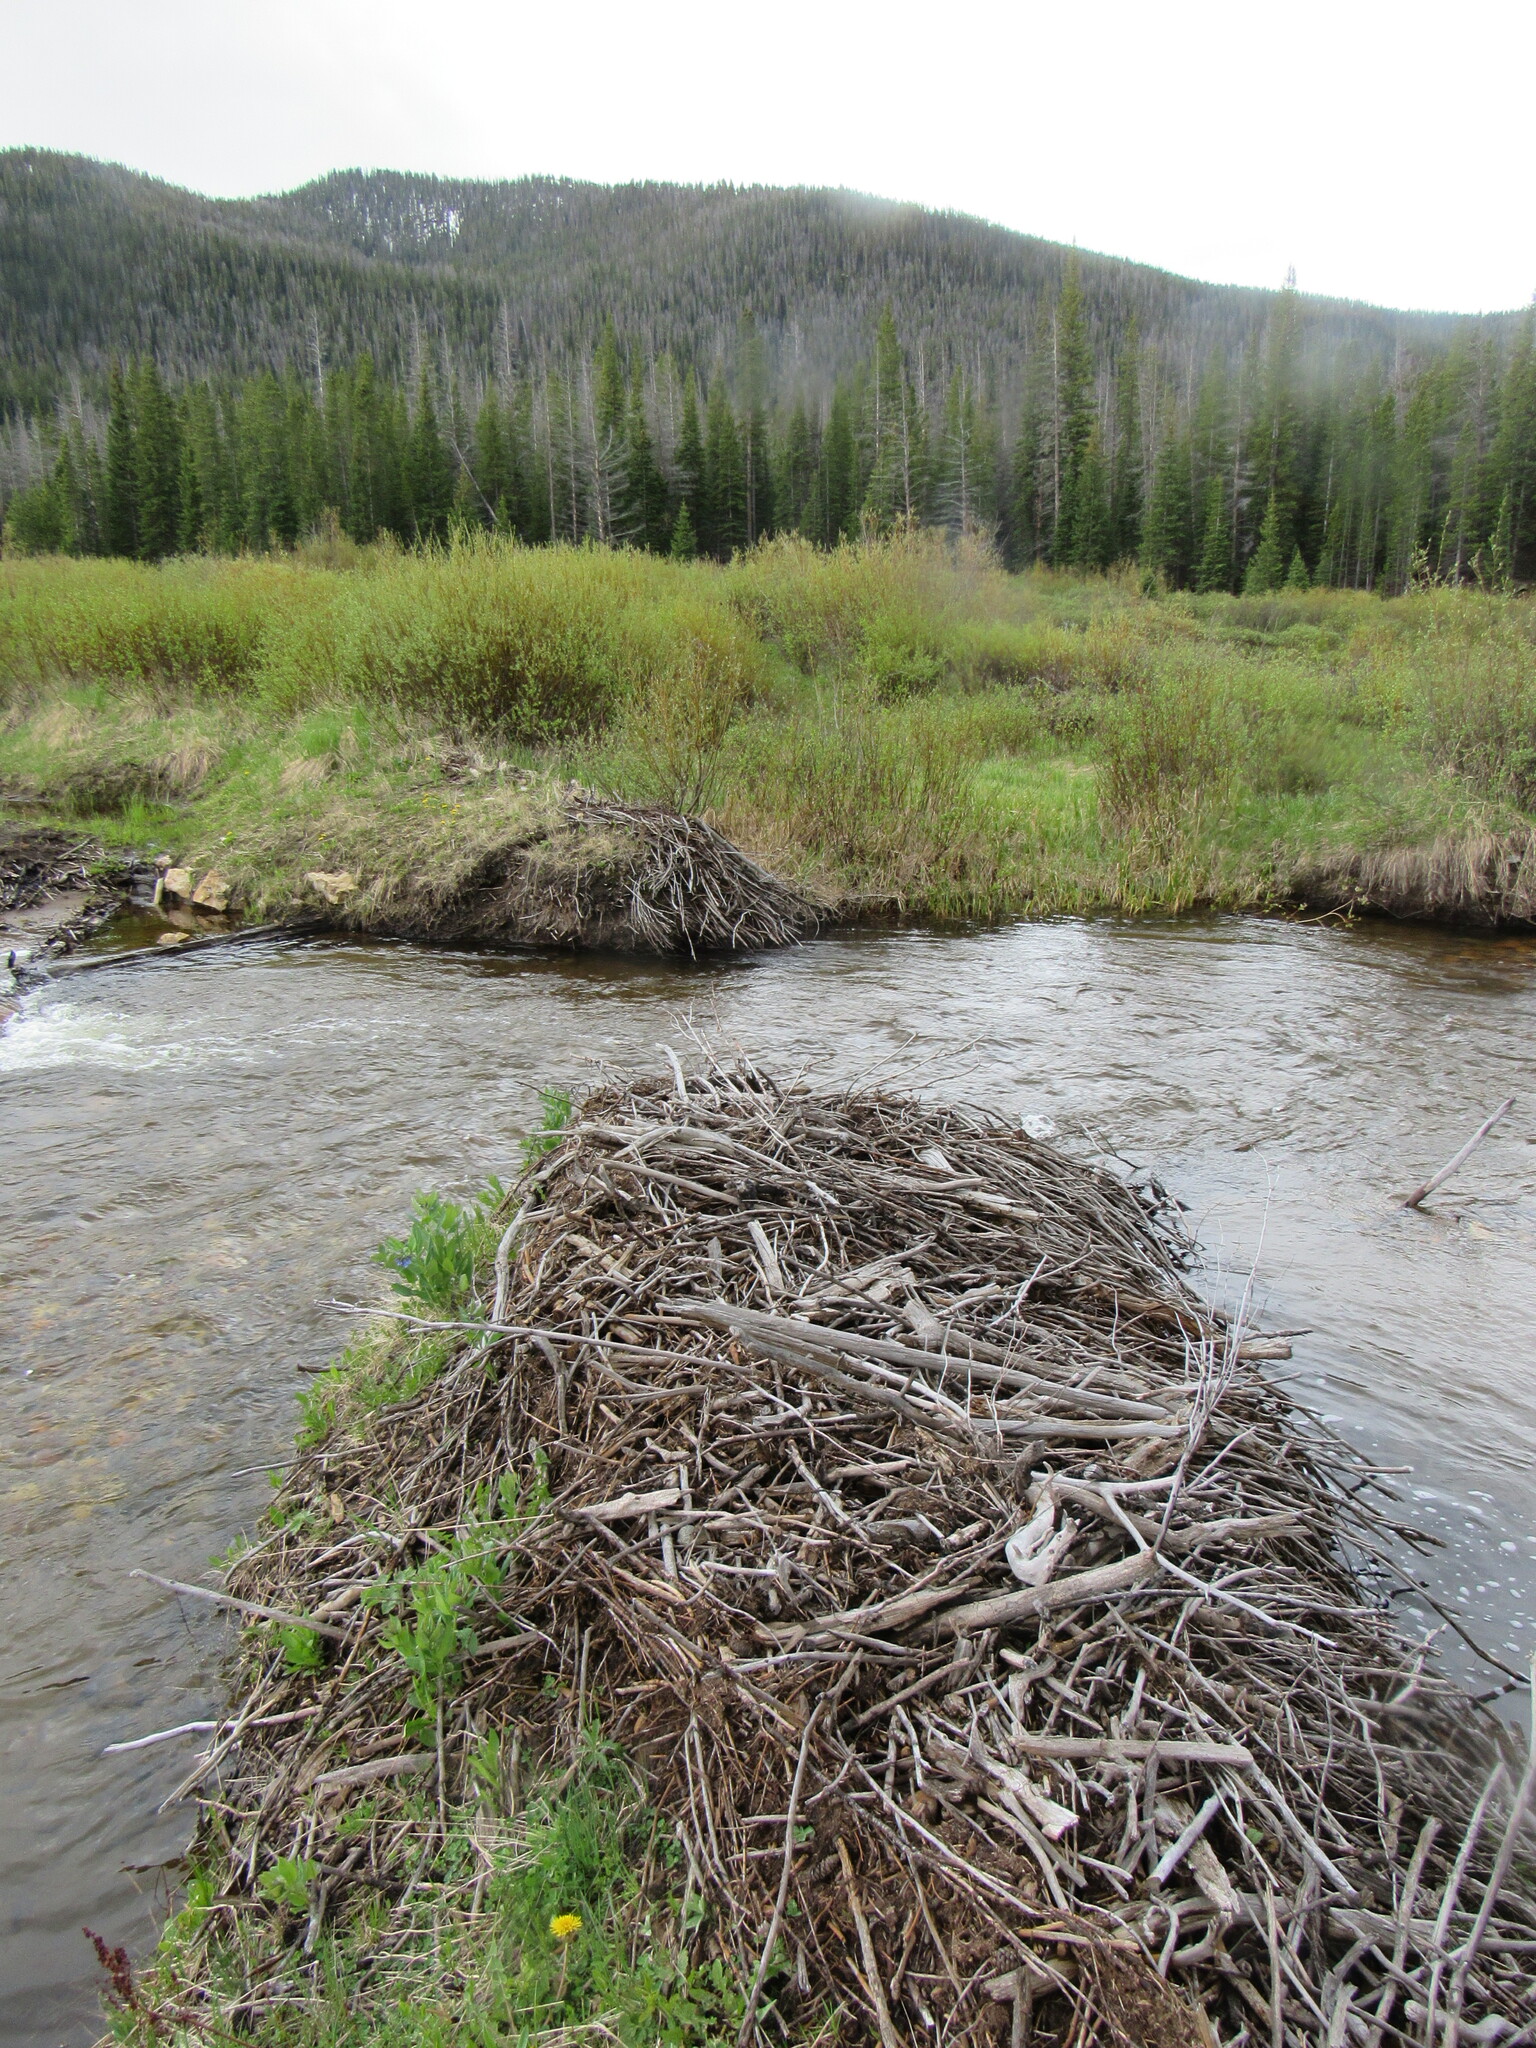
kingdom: Animalia
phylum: Chordata
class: Mammalia
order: Rodentia
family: Castoridae
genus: Castor
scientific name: Castor canadensis
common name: American beaver
